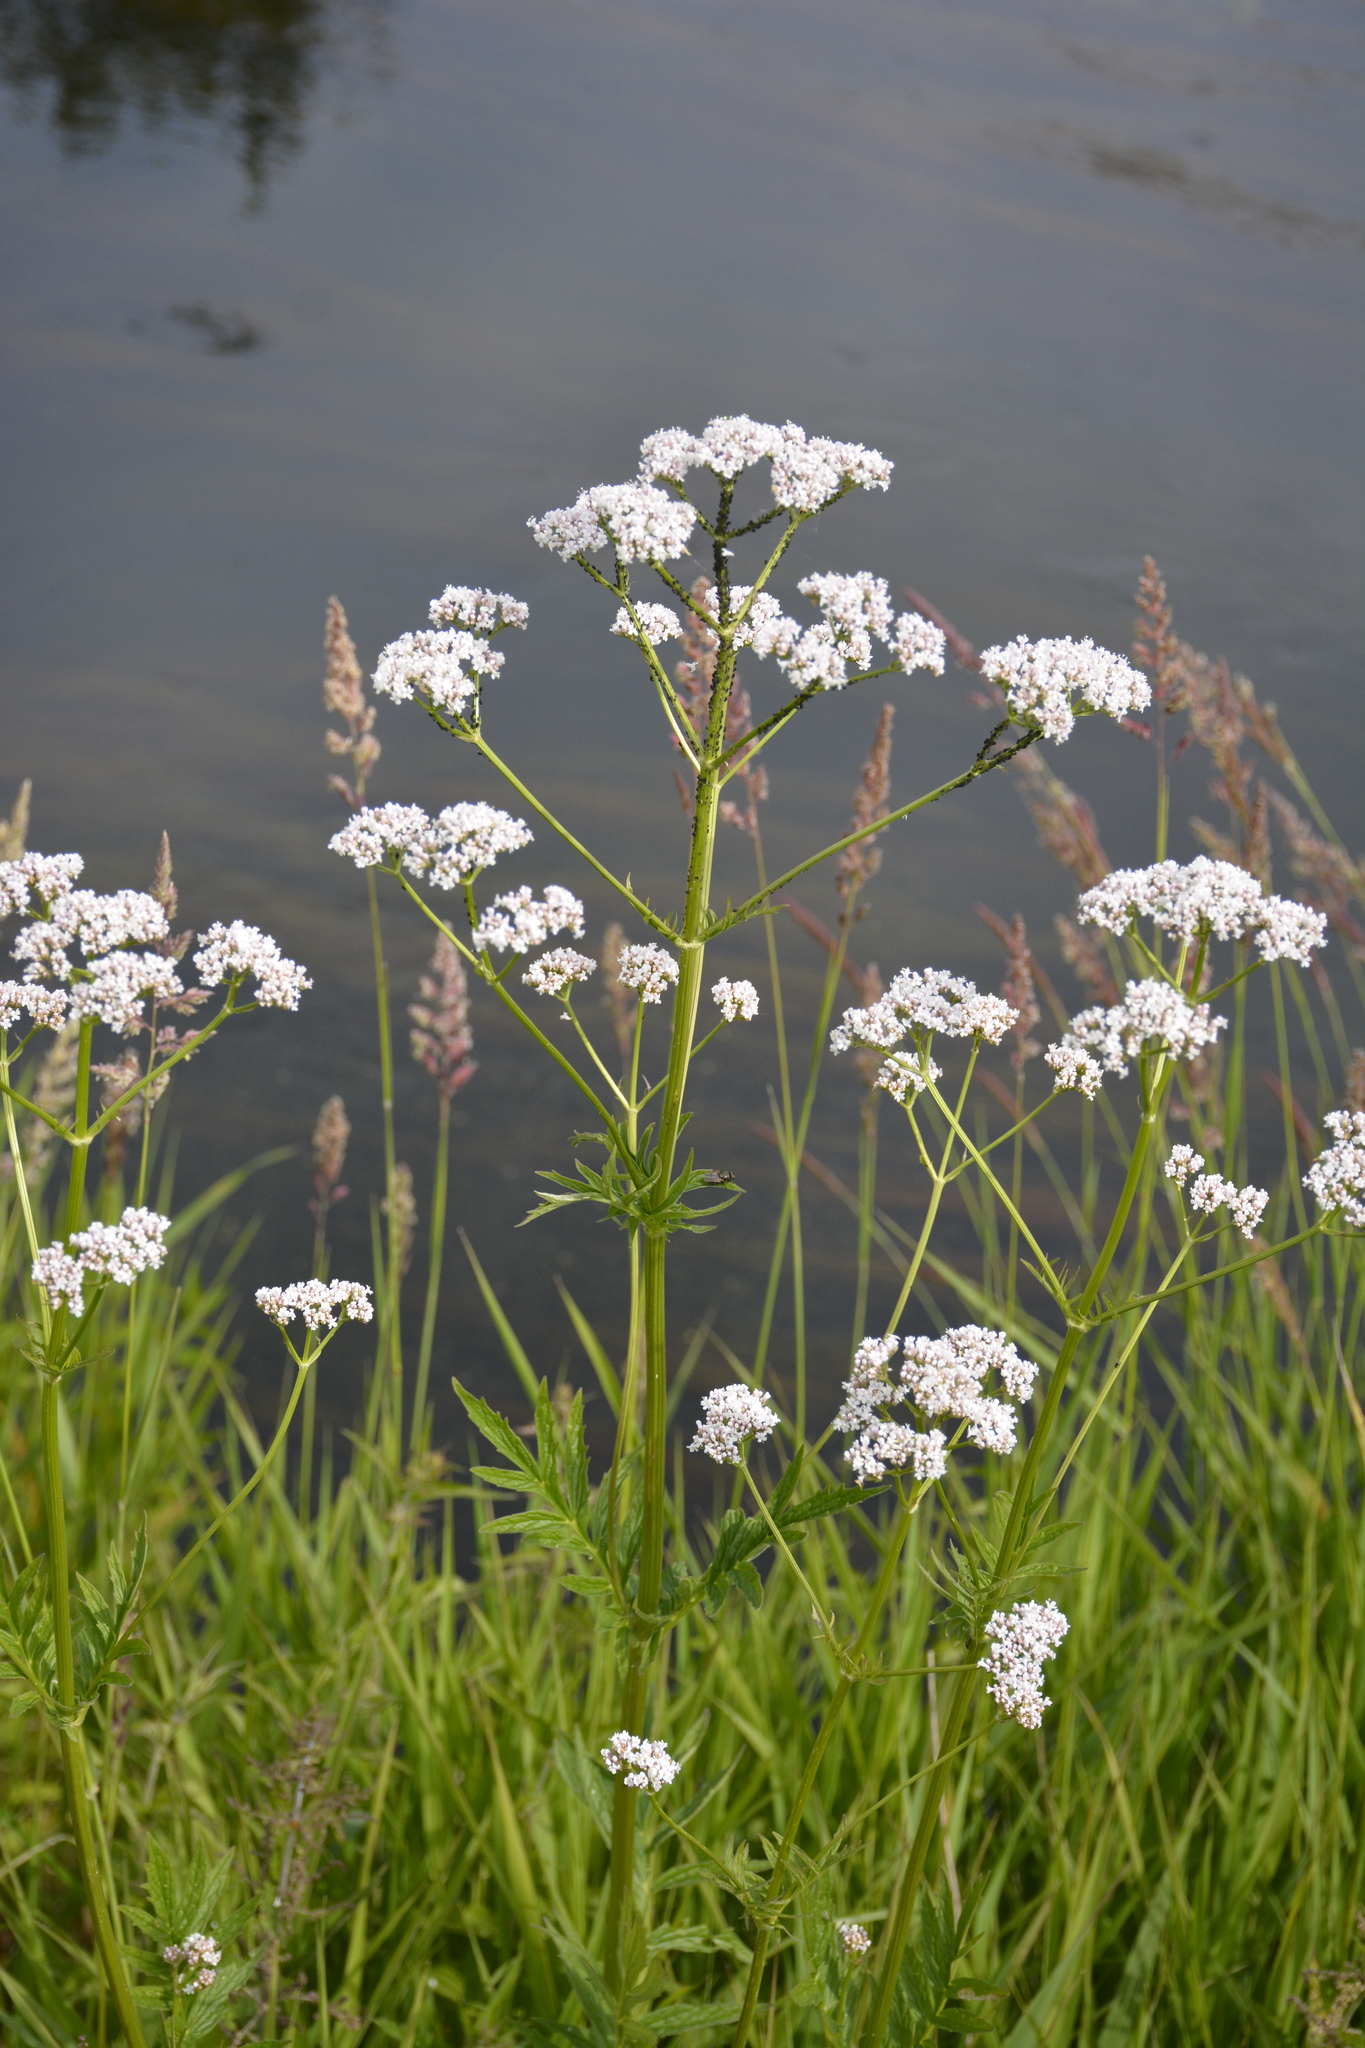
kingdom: Plantae
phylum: Tracheophyta
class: Magnoliopsida
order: Dipsacales
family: Caprifoliaceae
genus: Valeriana
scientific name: Valeriana officinalis
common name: Common valerian
